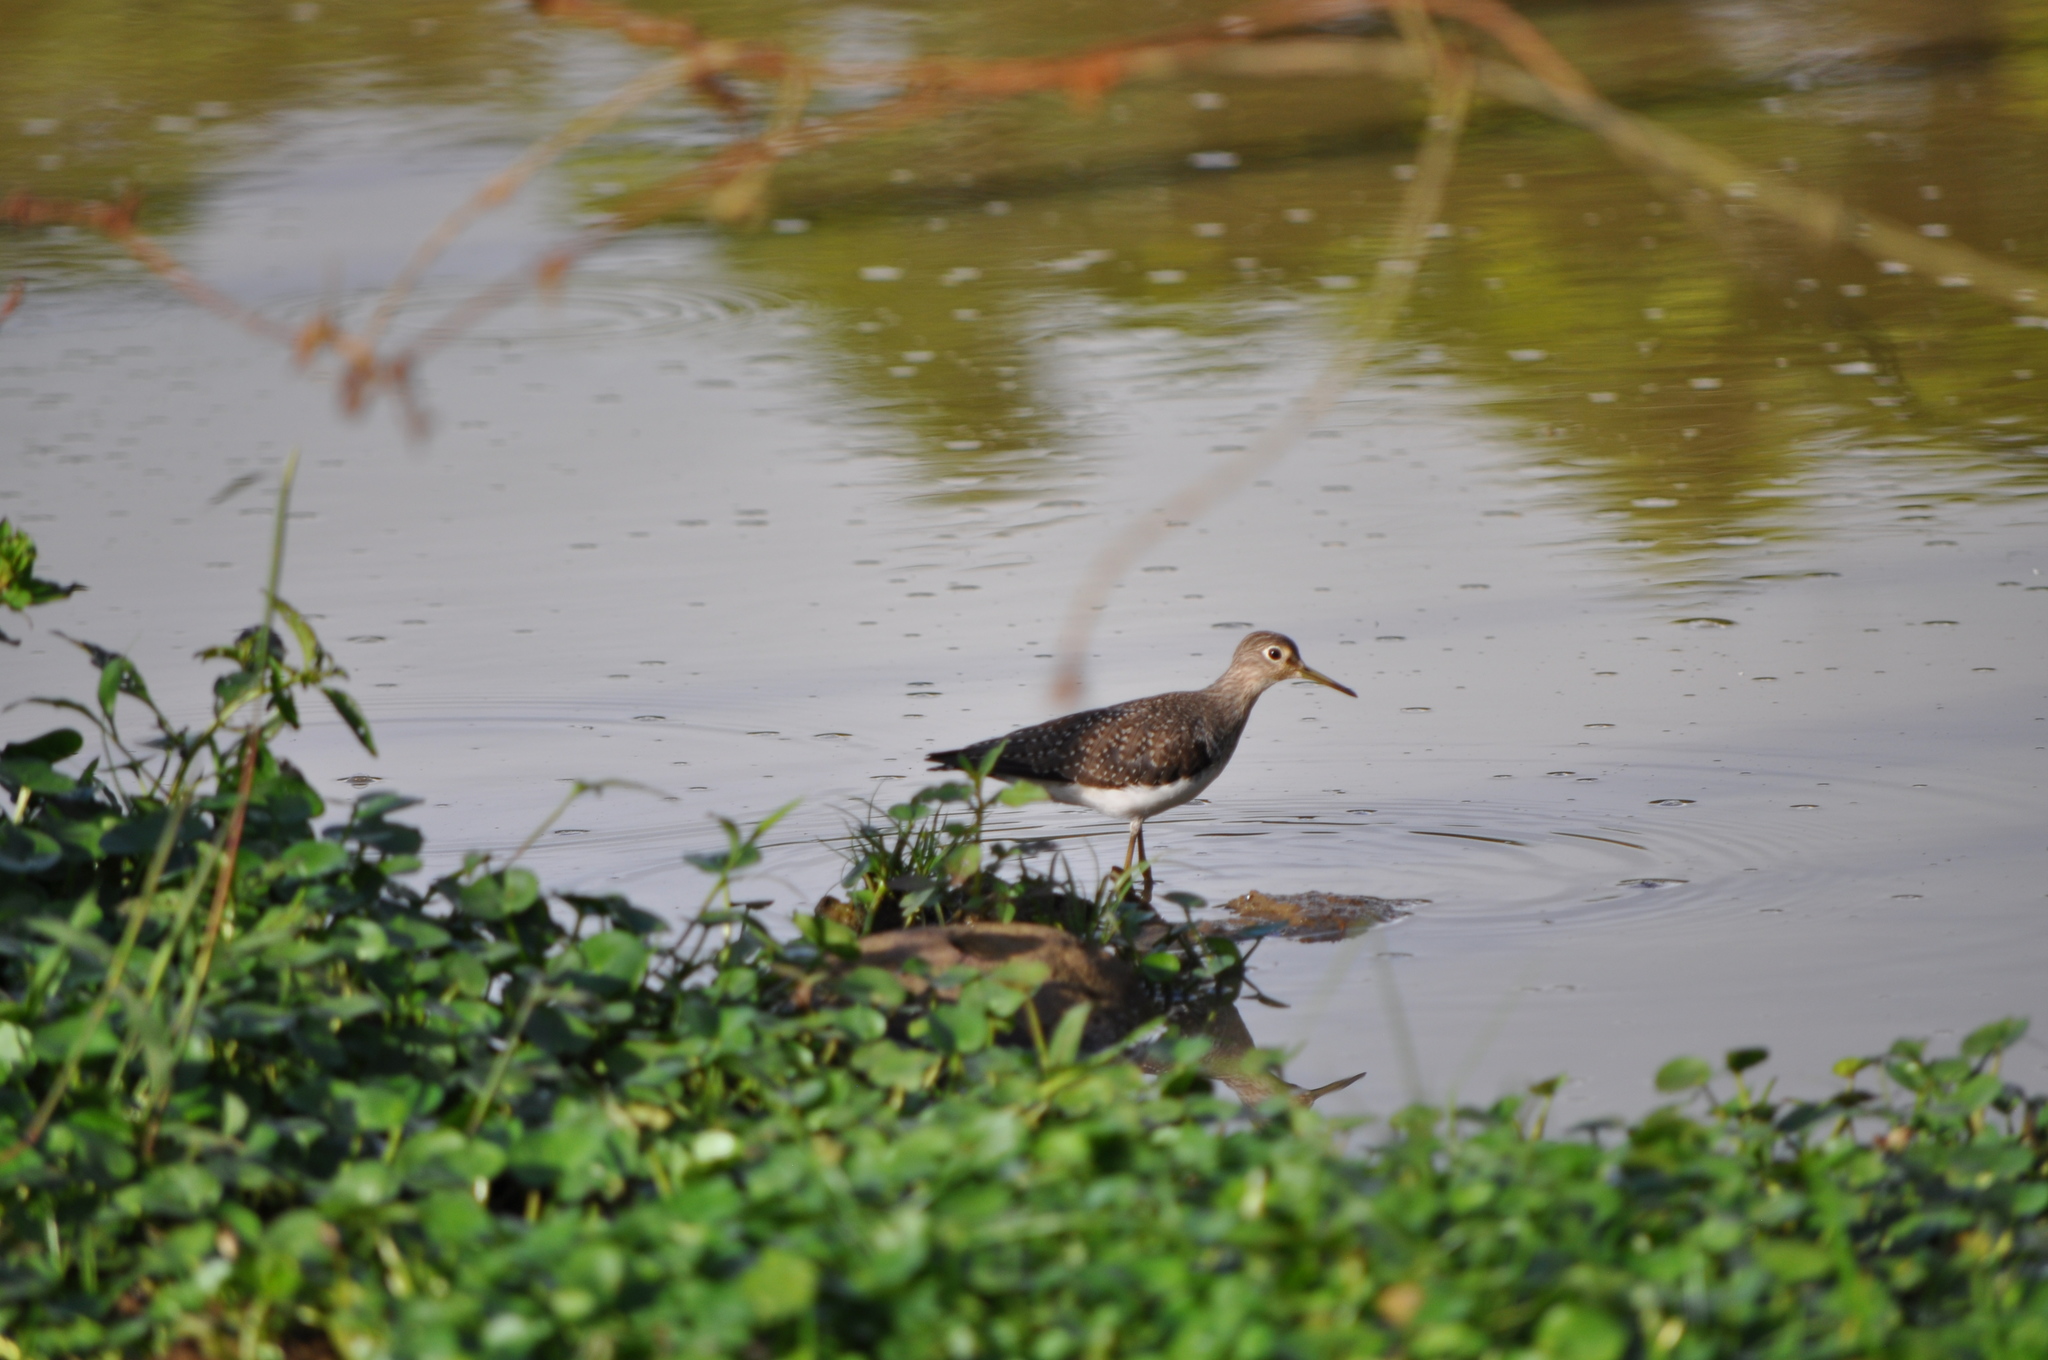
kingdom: Animalia
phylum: Chordata
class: Aves
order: Charadriiformes
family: Scolopacidae
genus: Tringa
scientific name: Tringa solitaria
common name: Solitary sandpiper
